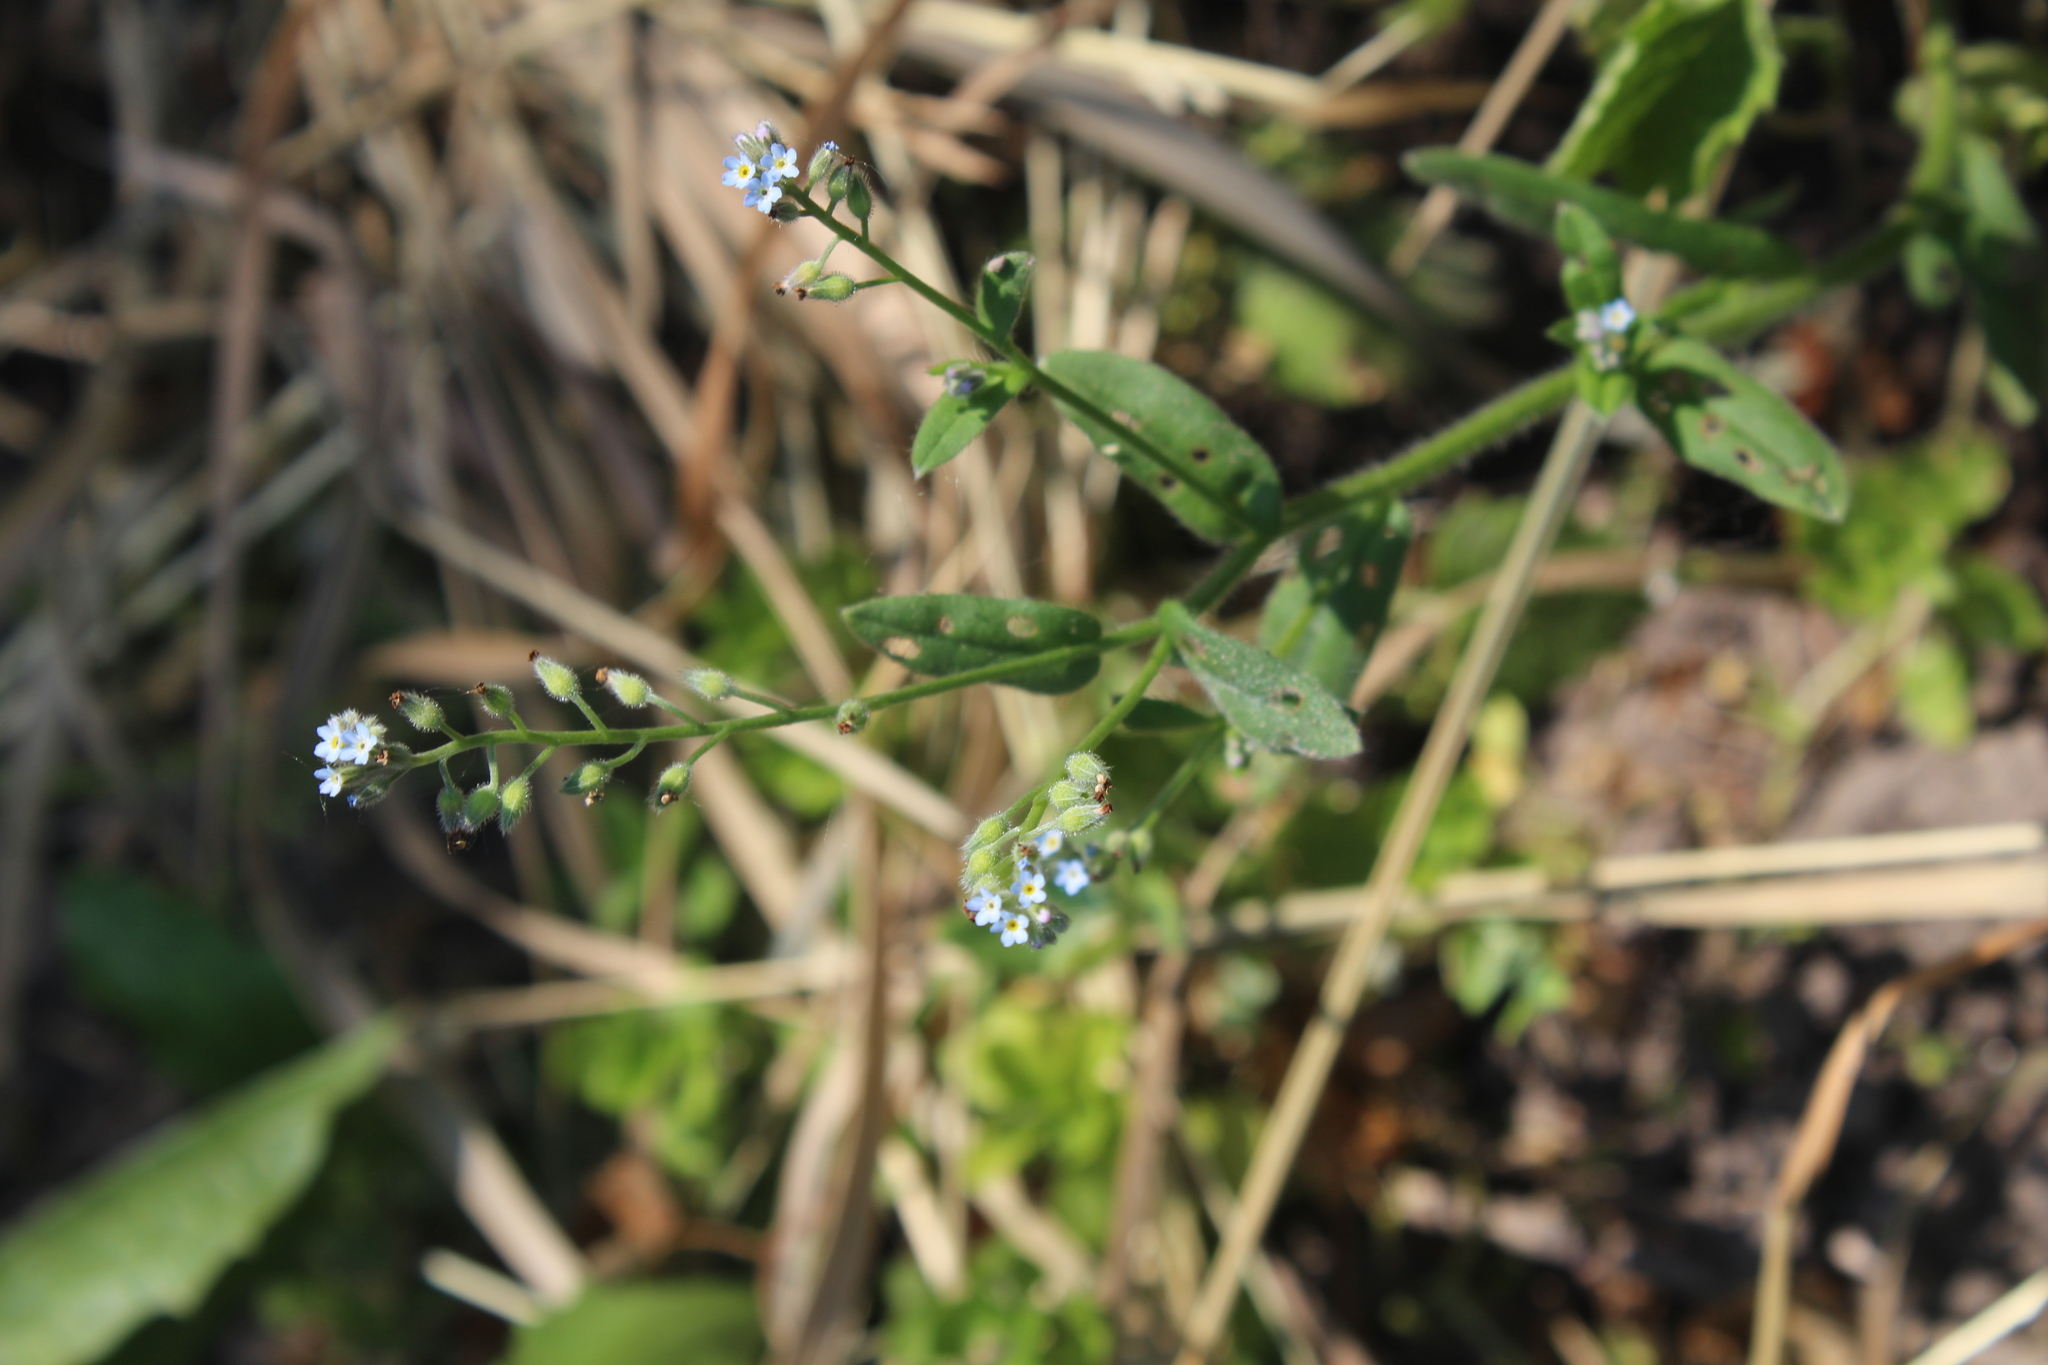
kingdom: Plantae
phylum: Tracheophyta
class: Magnoliopsida
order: Boraginales
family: Boraginaceae
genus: Myosotis
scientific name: Myosotis arvensis
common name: Field forget-me-not
